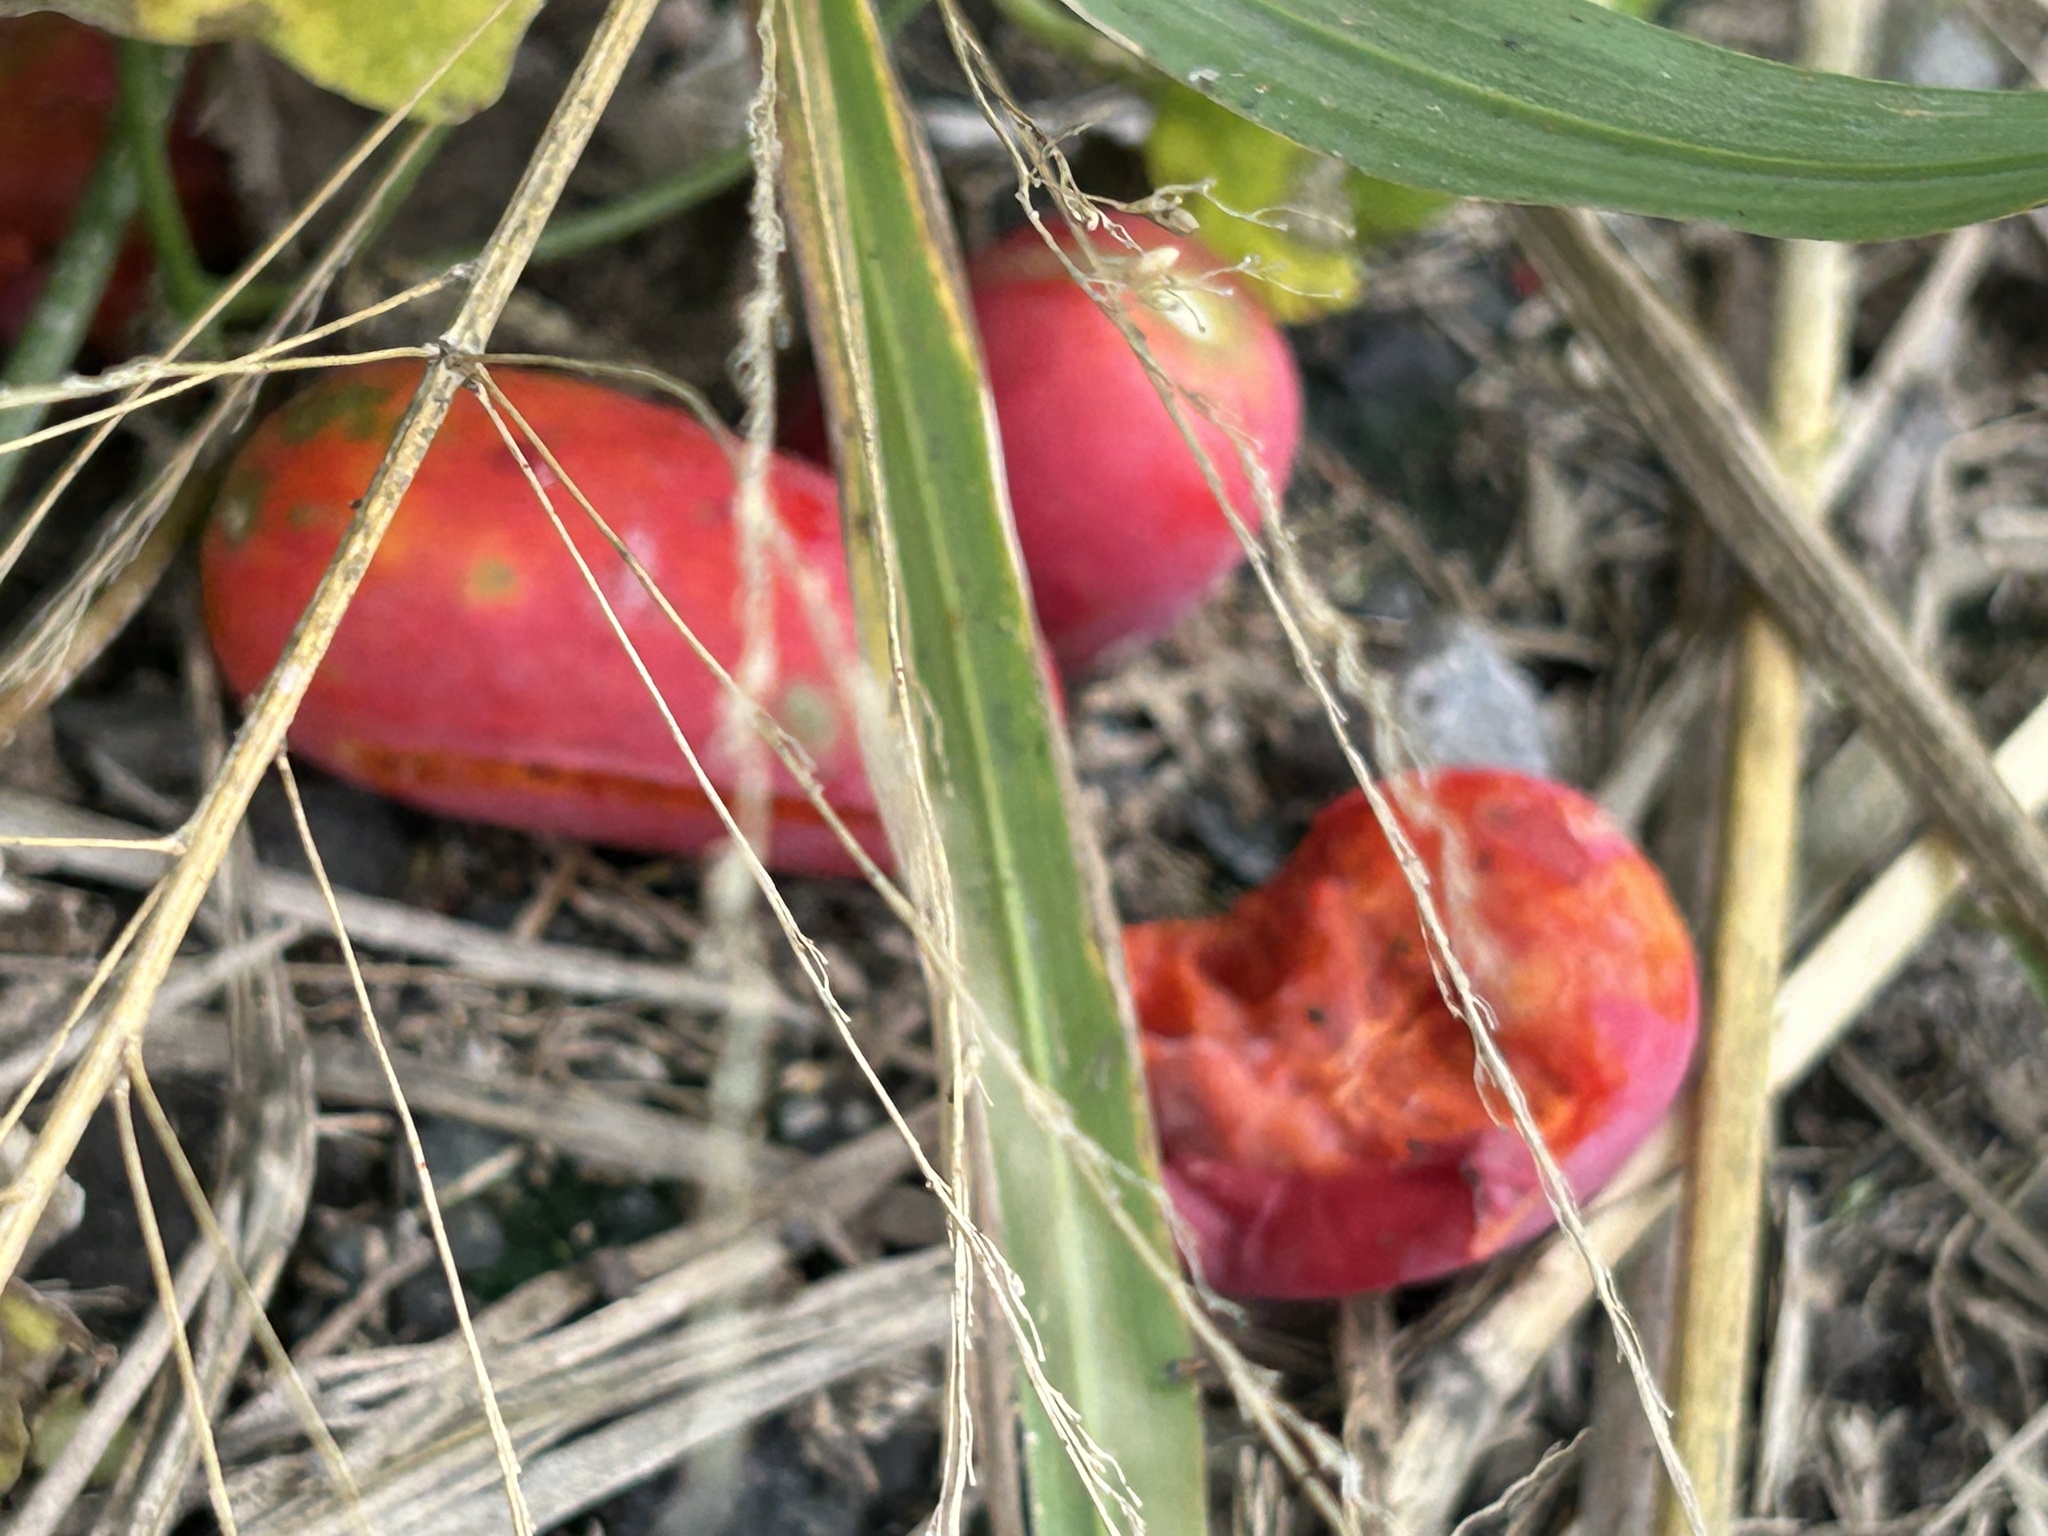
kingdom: Plantae
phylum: Tracheophyta
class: Magnoliopsida
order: Cucurbitales
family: Cucurbitaceae
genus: Coccinia
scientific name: Coccinia grandis
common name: Ivy gourd
